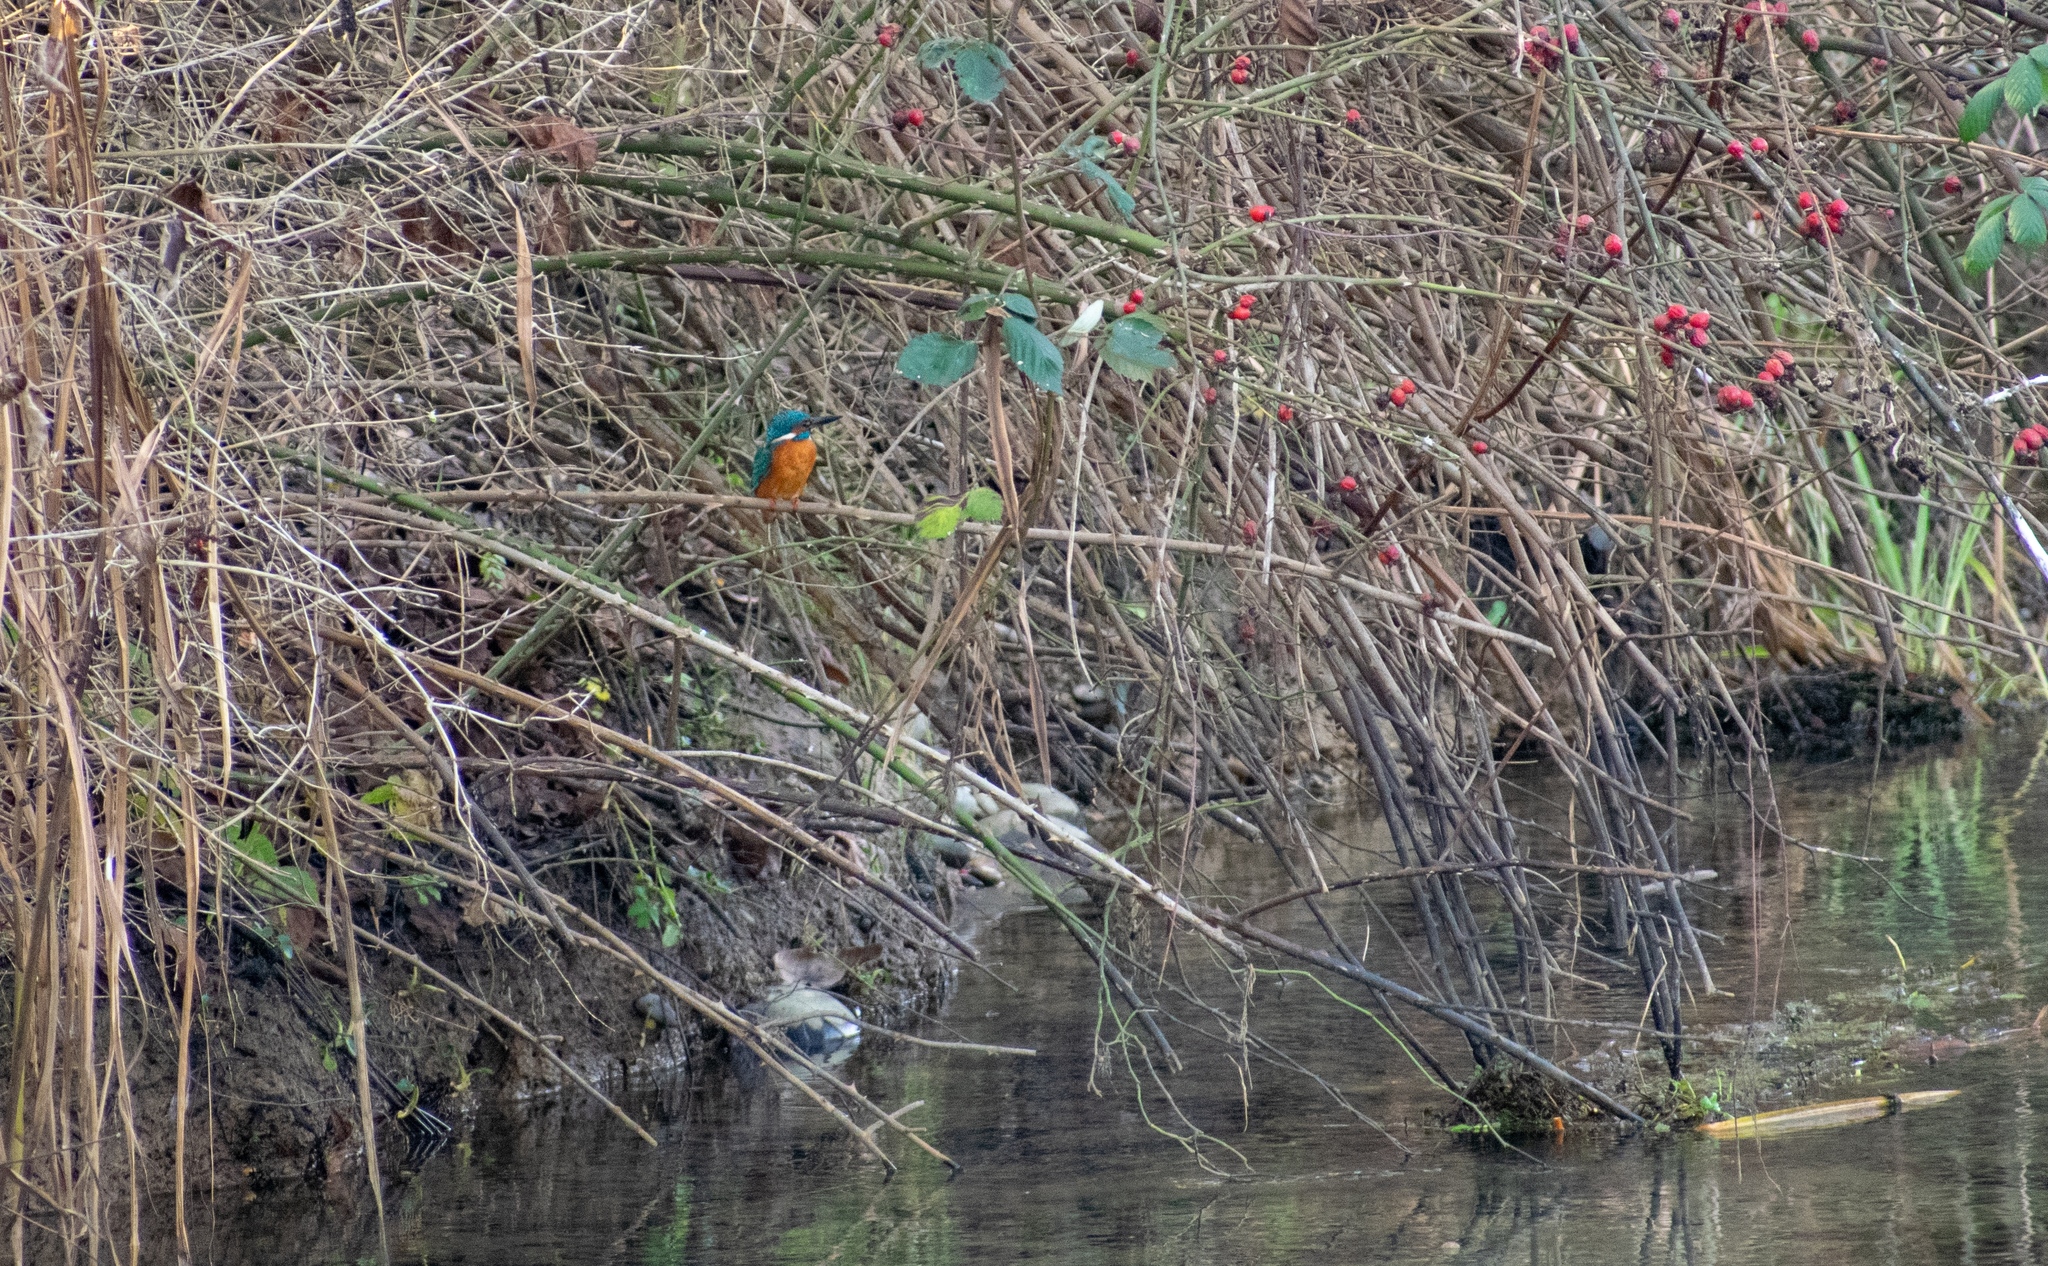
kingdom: Animalia
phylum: Chordata
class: Aves
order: Coraciiformes
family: Alcedinidae
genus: Alcedo
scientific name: Alcedo atthis
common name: Common kingfisher
